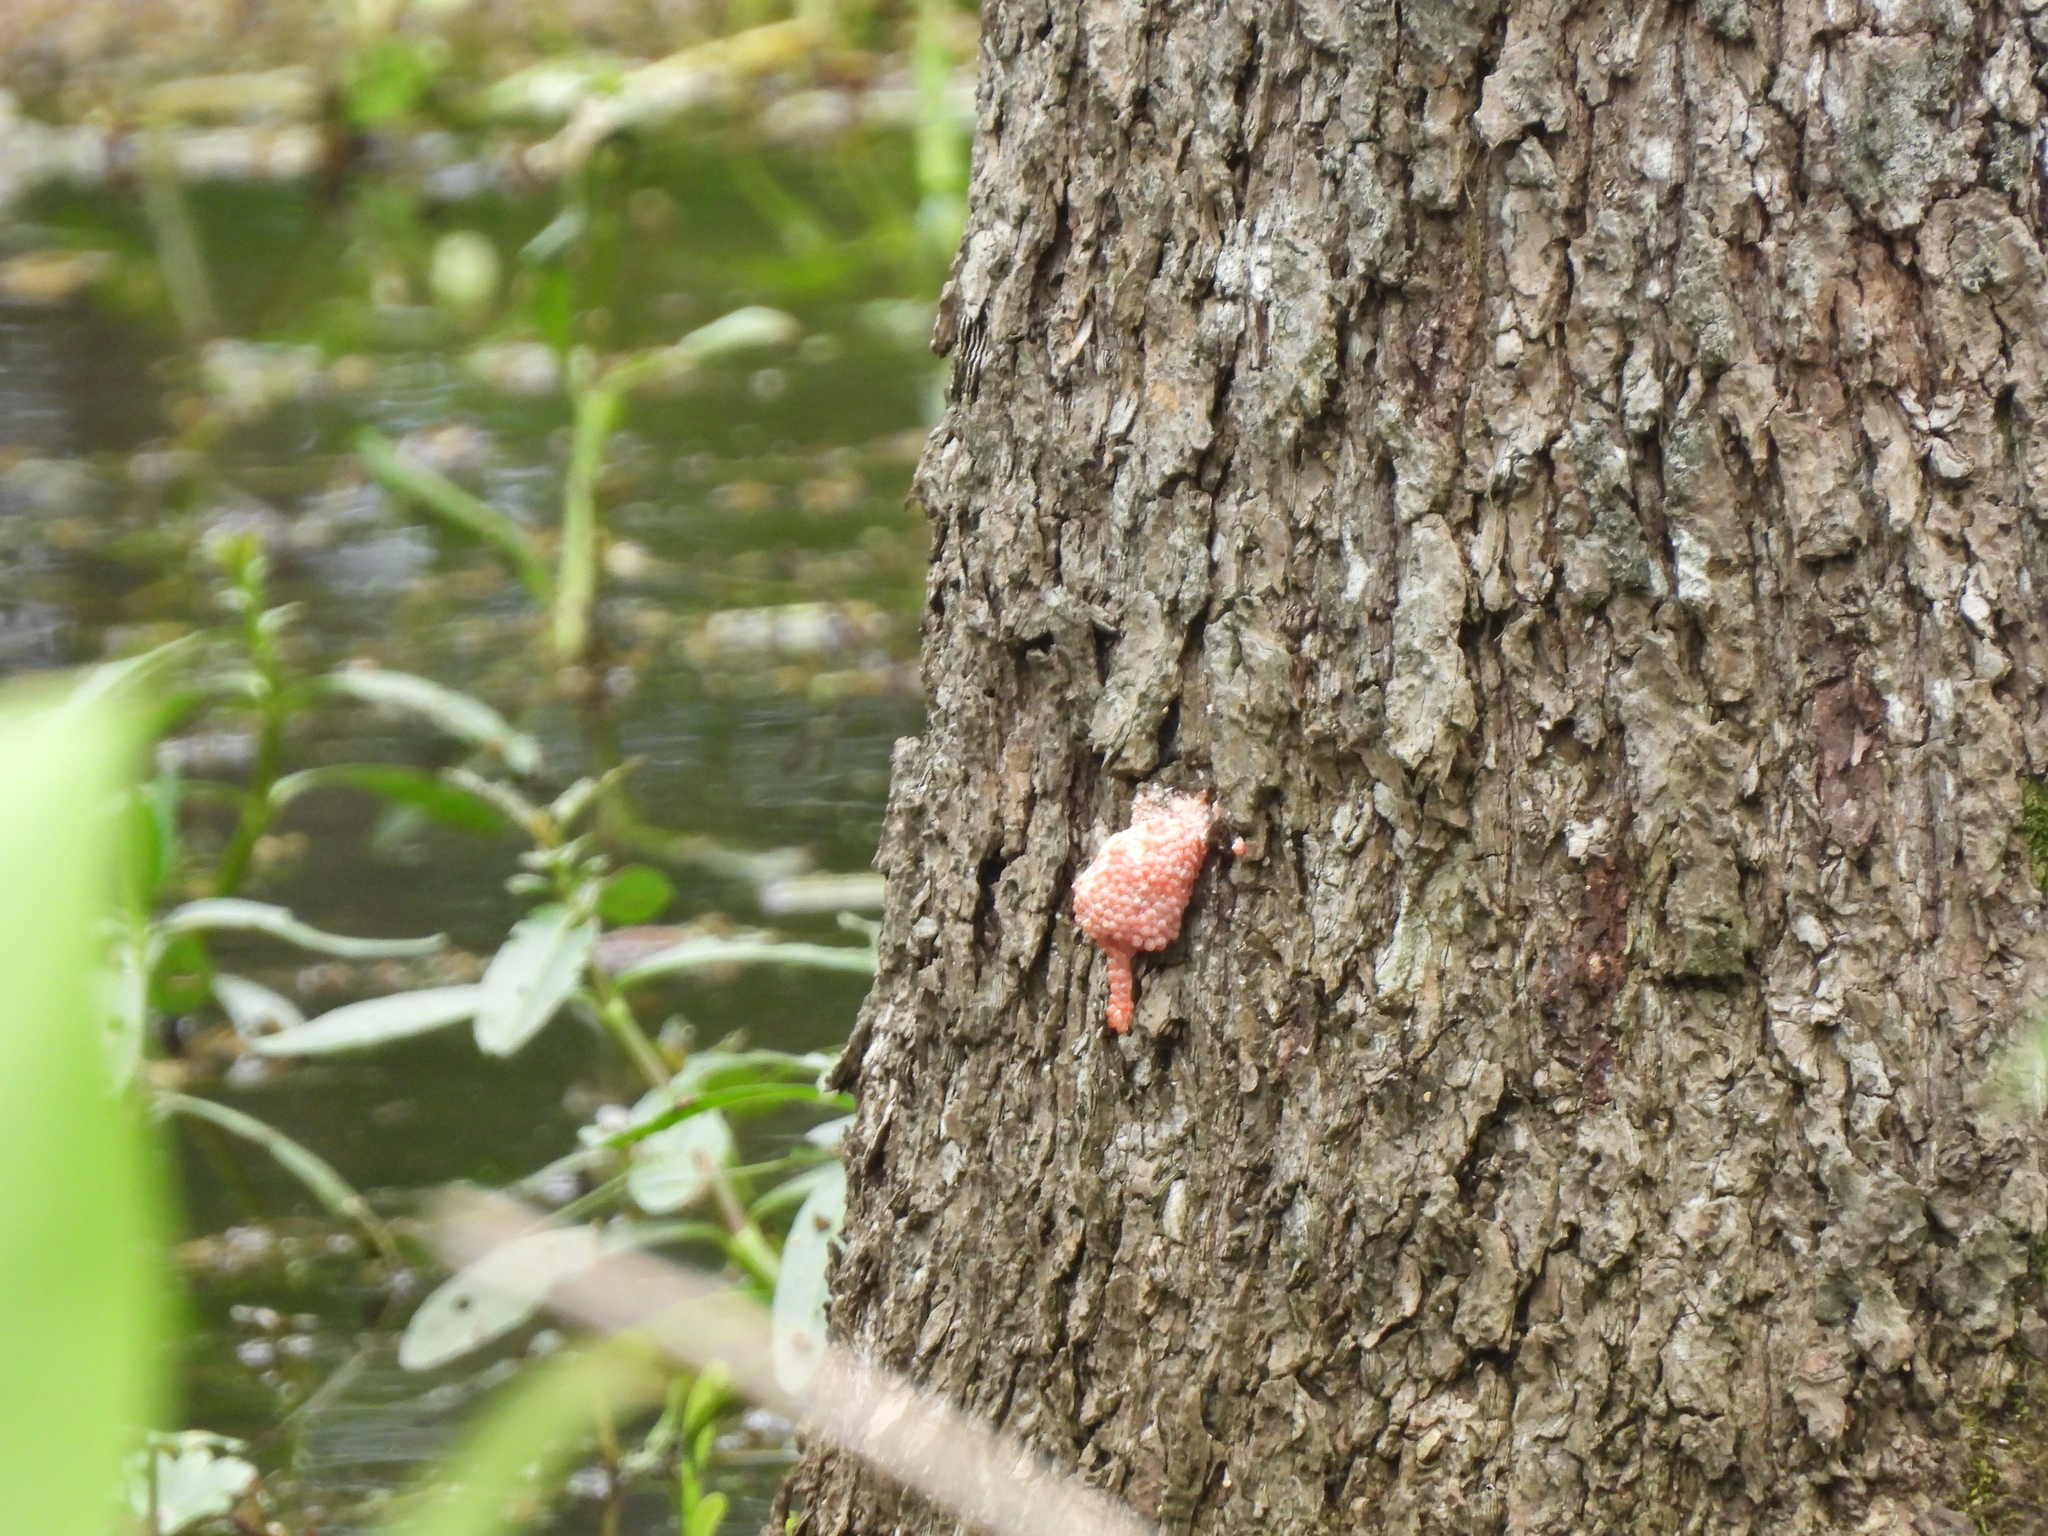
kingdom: Animalia
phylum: Mollusca
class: Gastropoda
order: Architaenioglossa
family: Ampullariidae
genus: Pomacea
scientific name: Pomacea maculata
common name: Giant applesnail
